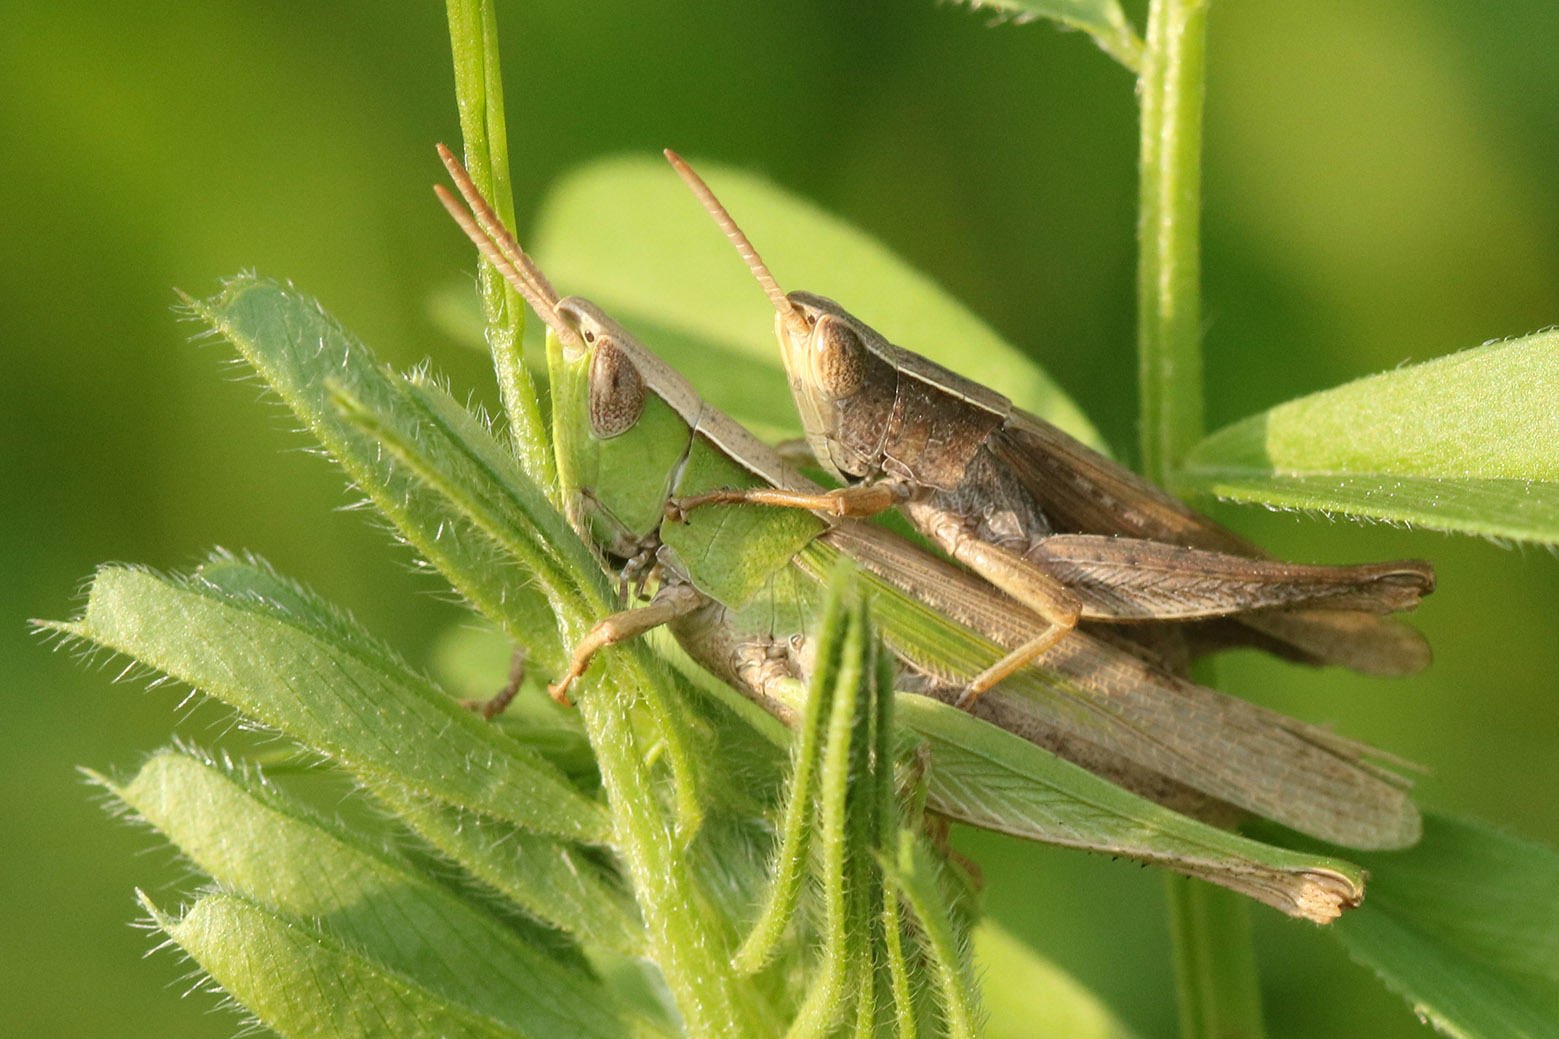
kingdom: Animalia
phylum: Arthropoda
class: Insecta
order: Orthoptera
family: Acrididae
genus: Laplatacris
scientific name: Laplatacris dispar
